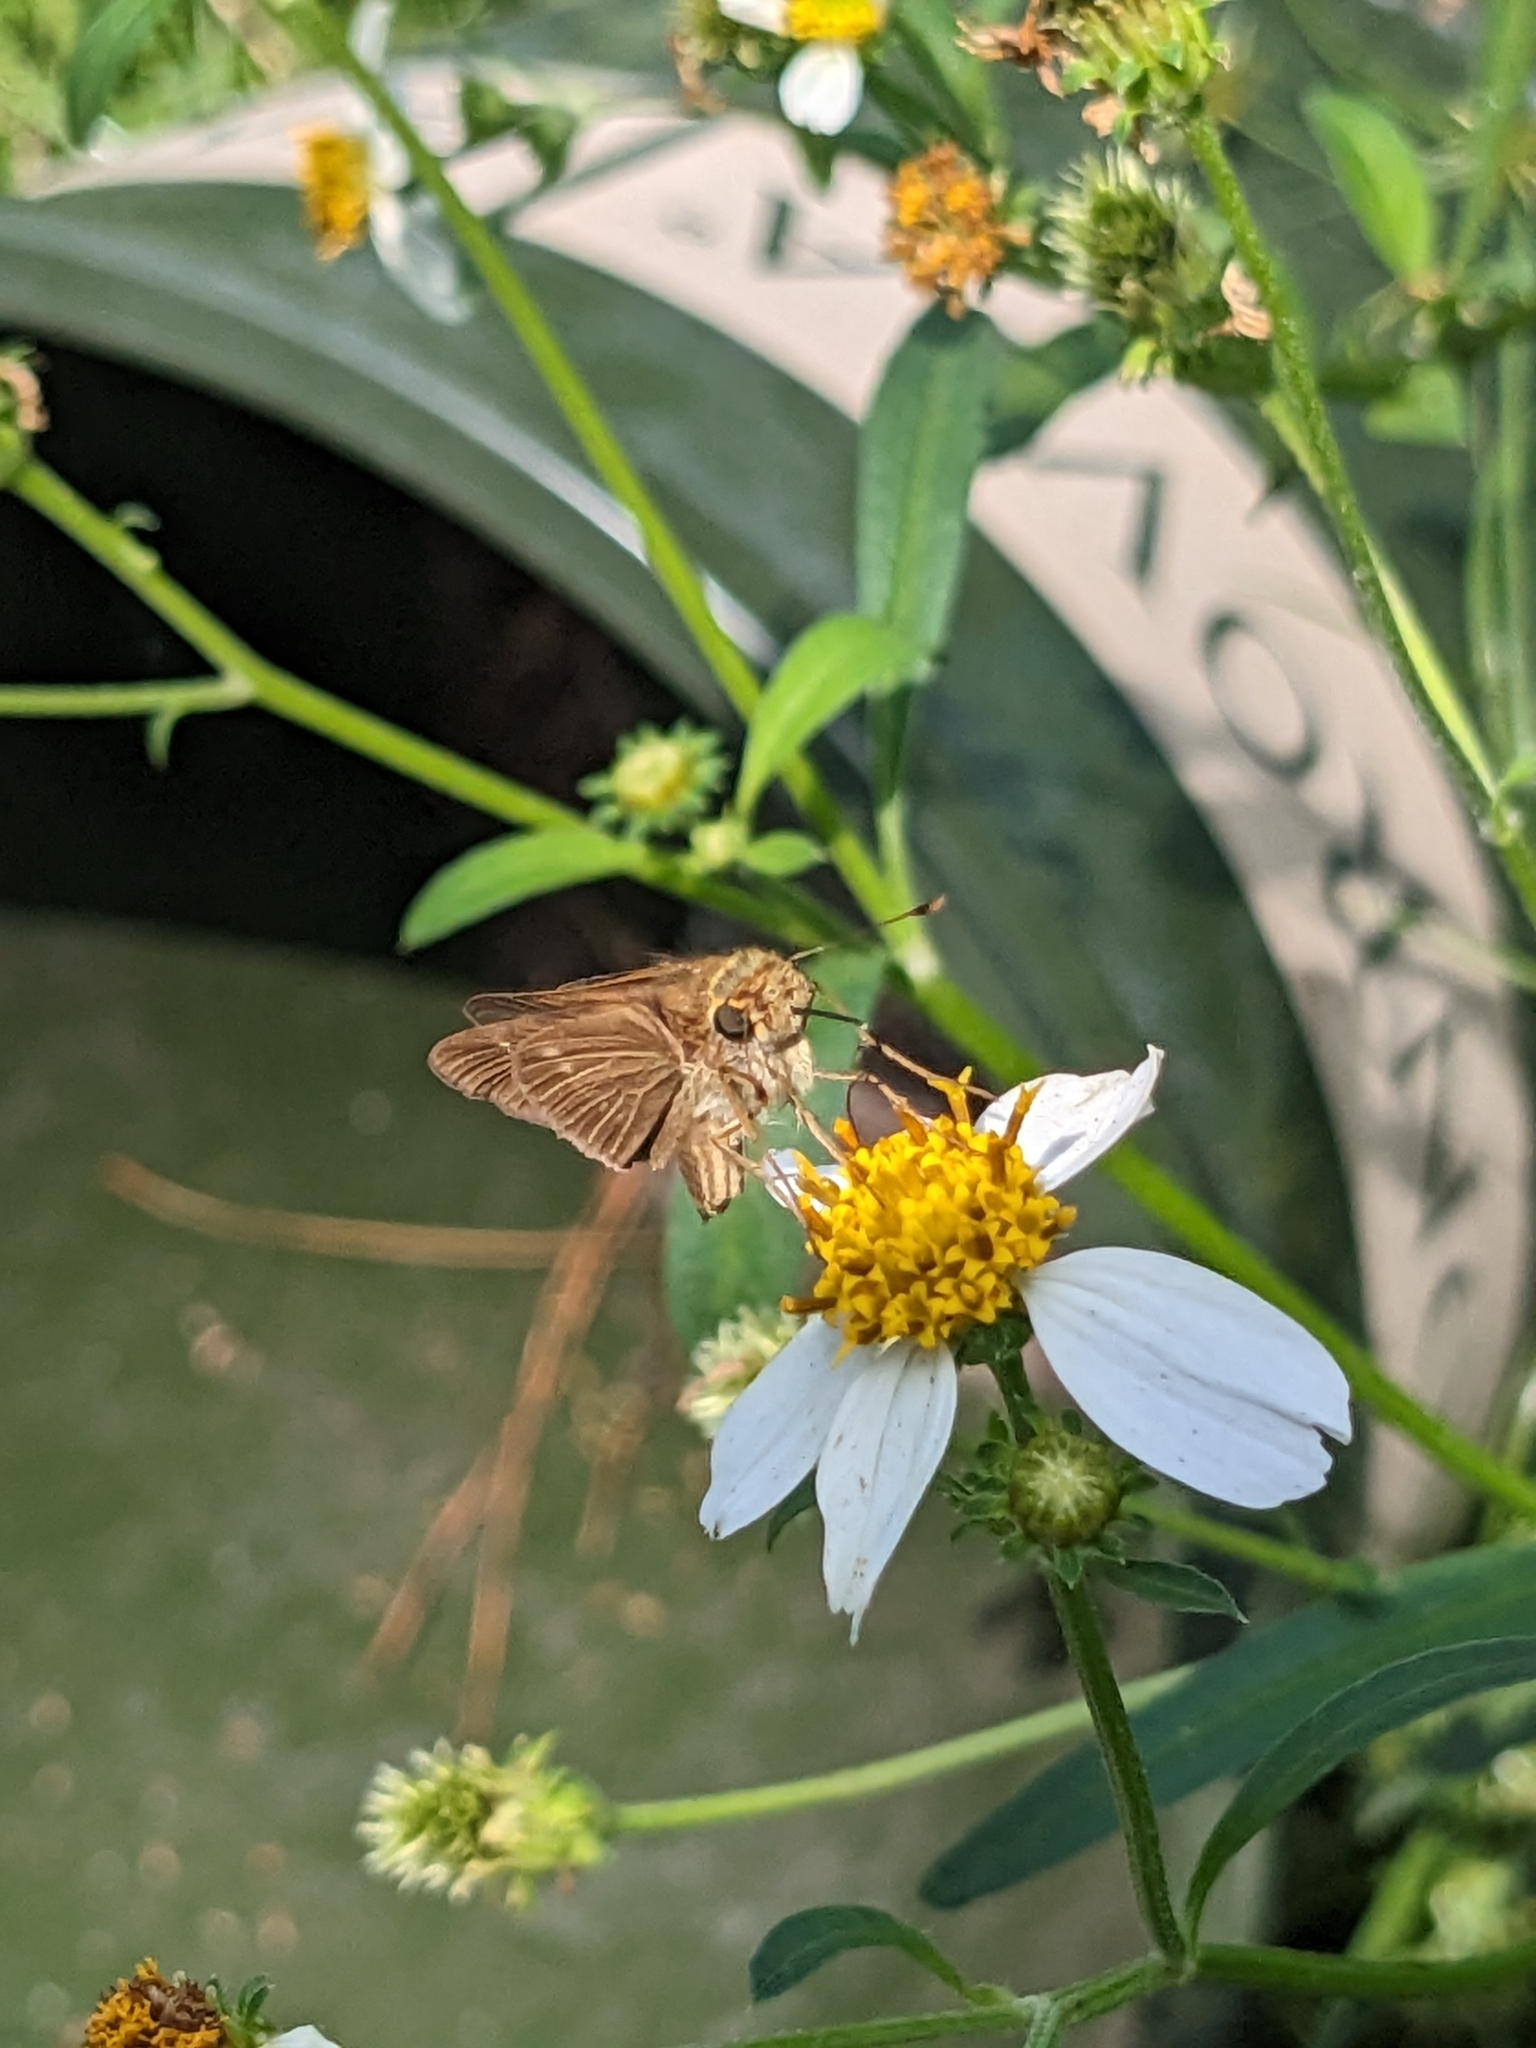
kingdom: Animalia
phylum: Arthropoda
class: Insecta
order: Lepidoptera
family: Hesperiidae
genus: Panoquina
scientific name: Panoquina ocola
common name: Ocola skipper
